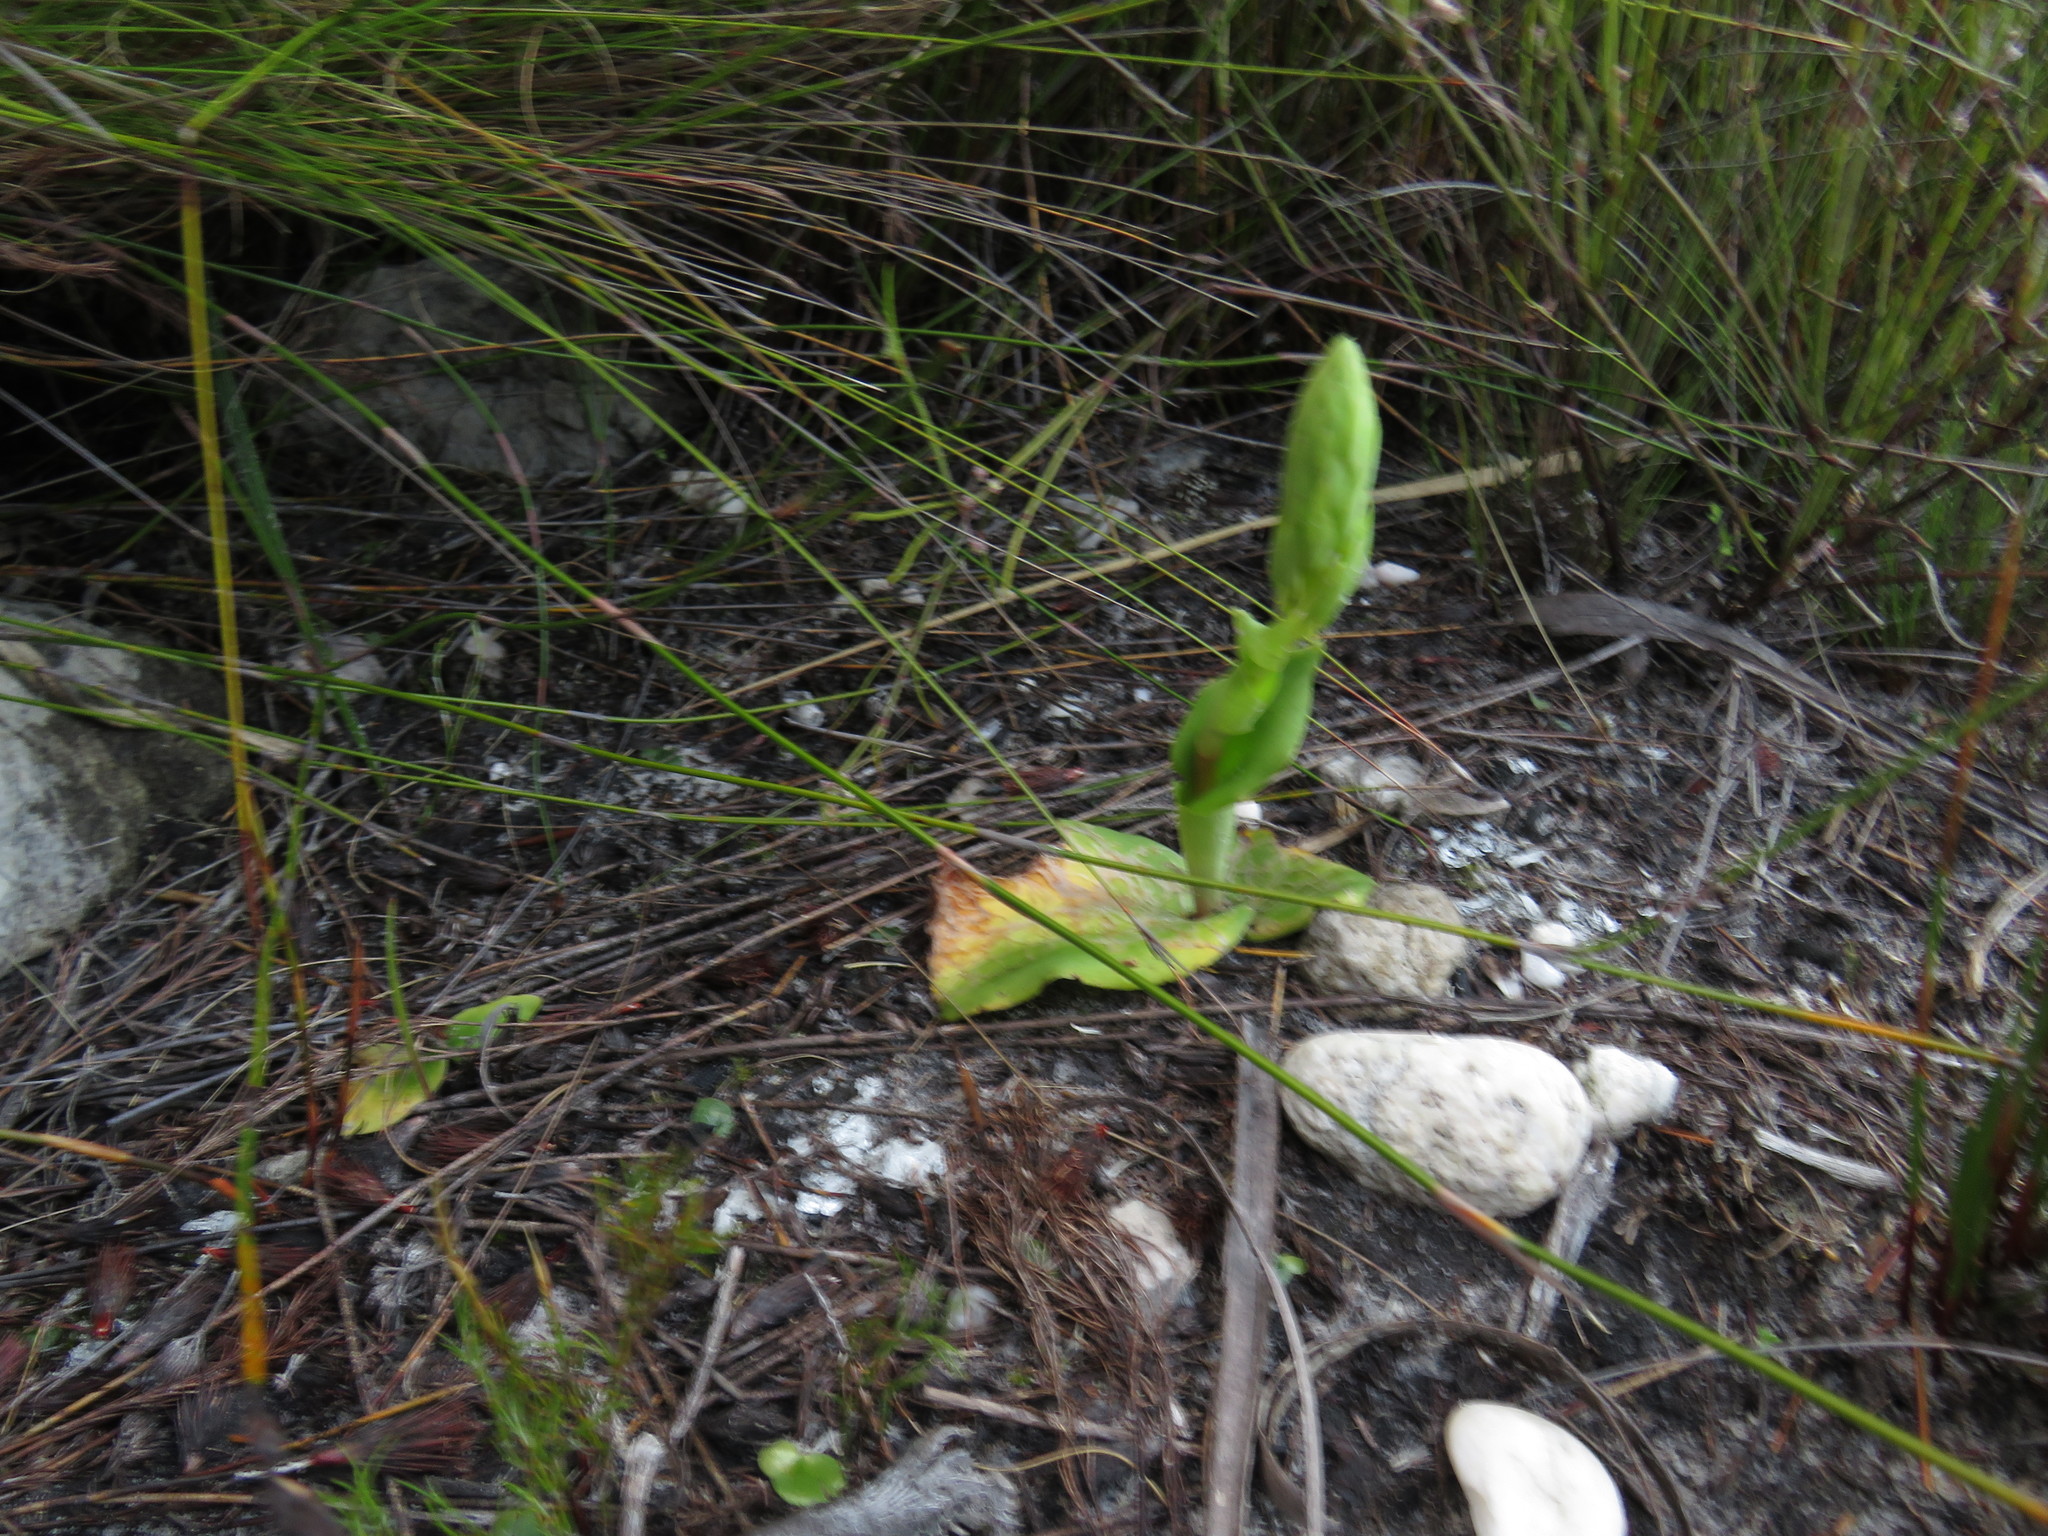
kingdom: Plantae
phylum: Tracheophyta
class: Liliopsida
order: Asparagales
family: Orchidaceae
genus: Satyrium
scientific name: Satyrium humile
